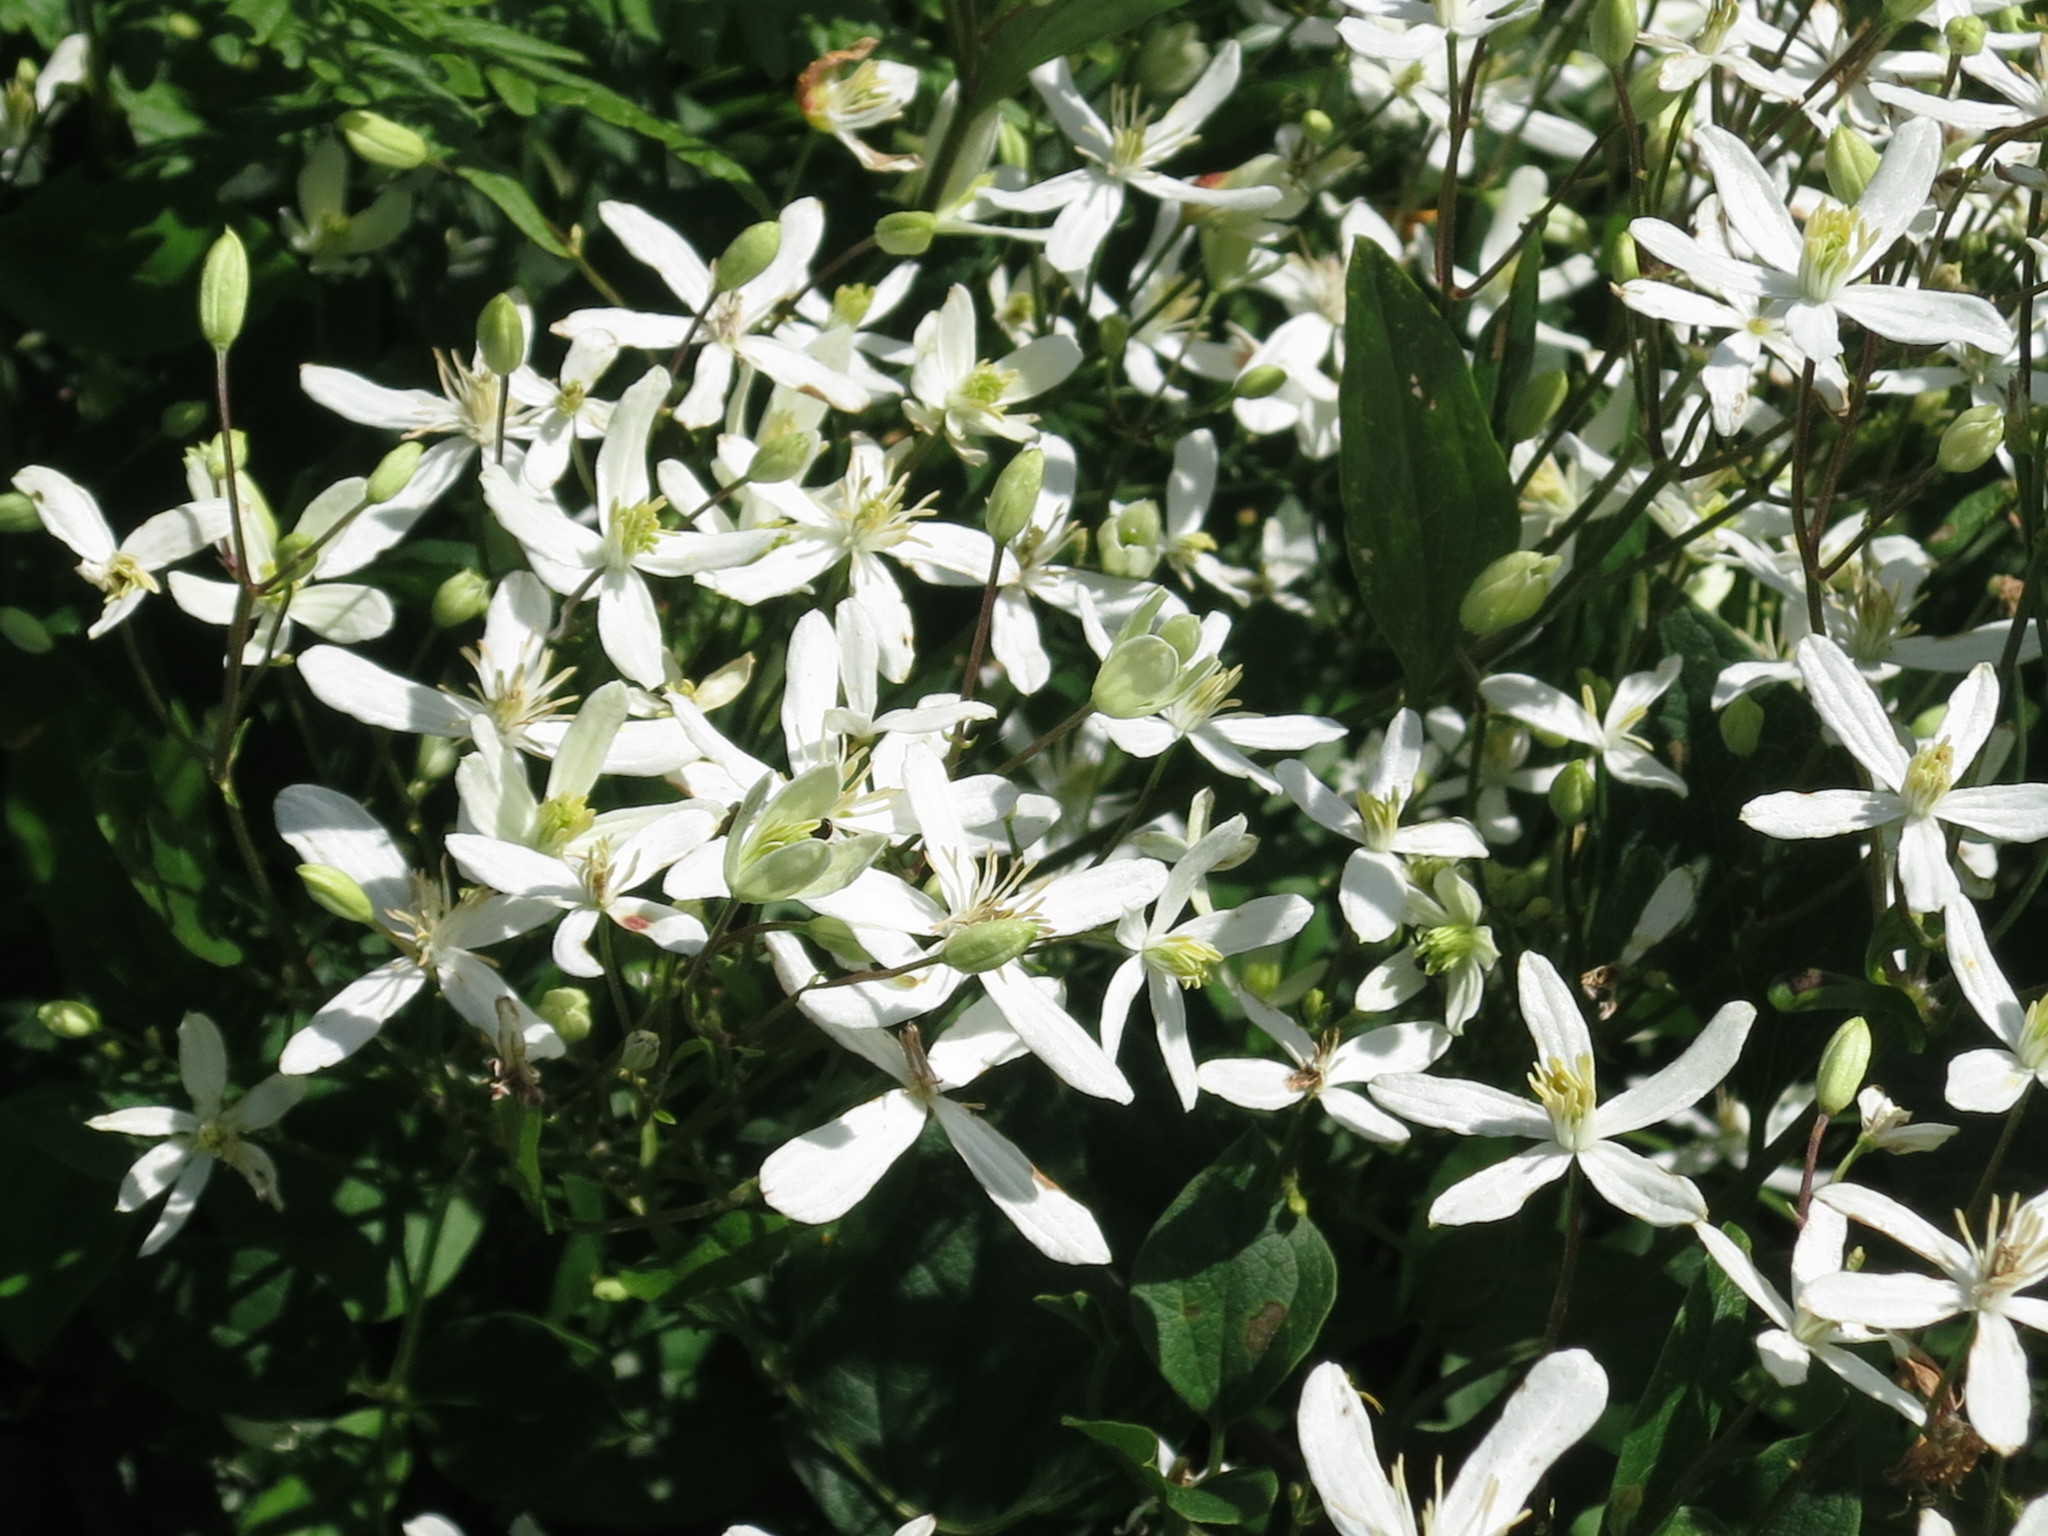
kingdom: Plantae
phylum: Tracheophyta
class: Magnoliopsida
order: Ranunculales
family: Ranunculaceae
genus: Clematis
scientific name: Clematis terniflora
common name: Sweet autumn clematis
